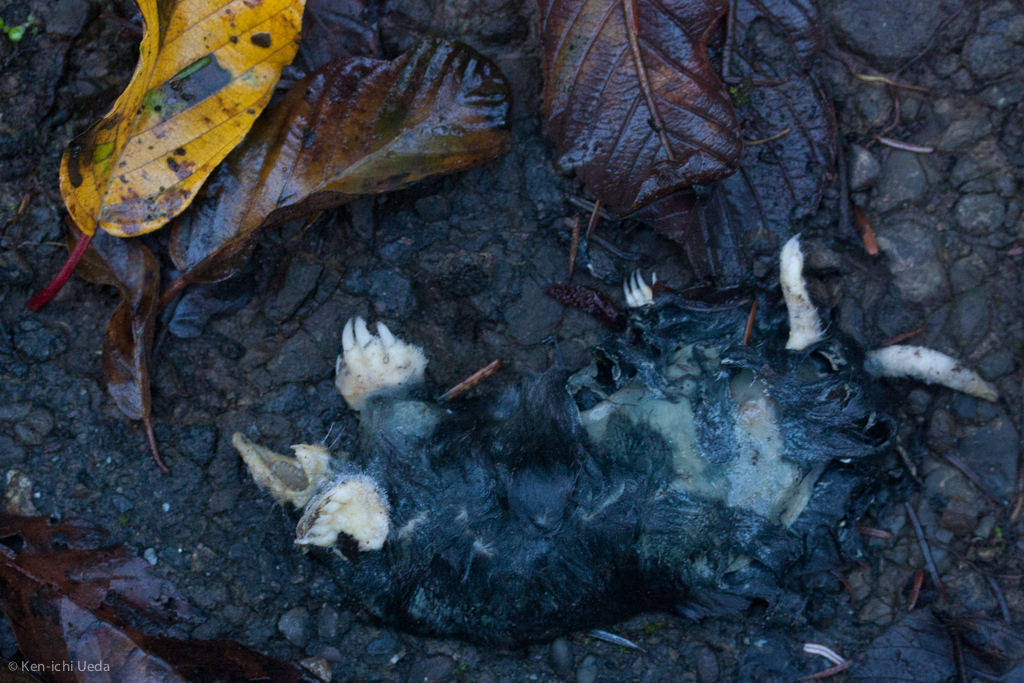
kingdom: Animalia
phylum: Chordata
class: Mammalia
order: Soricomorpha
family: Talpidae
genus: Scapanus
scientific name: Scapanus latimanus
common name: Broad-footed mole
